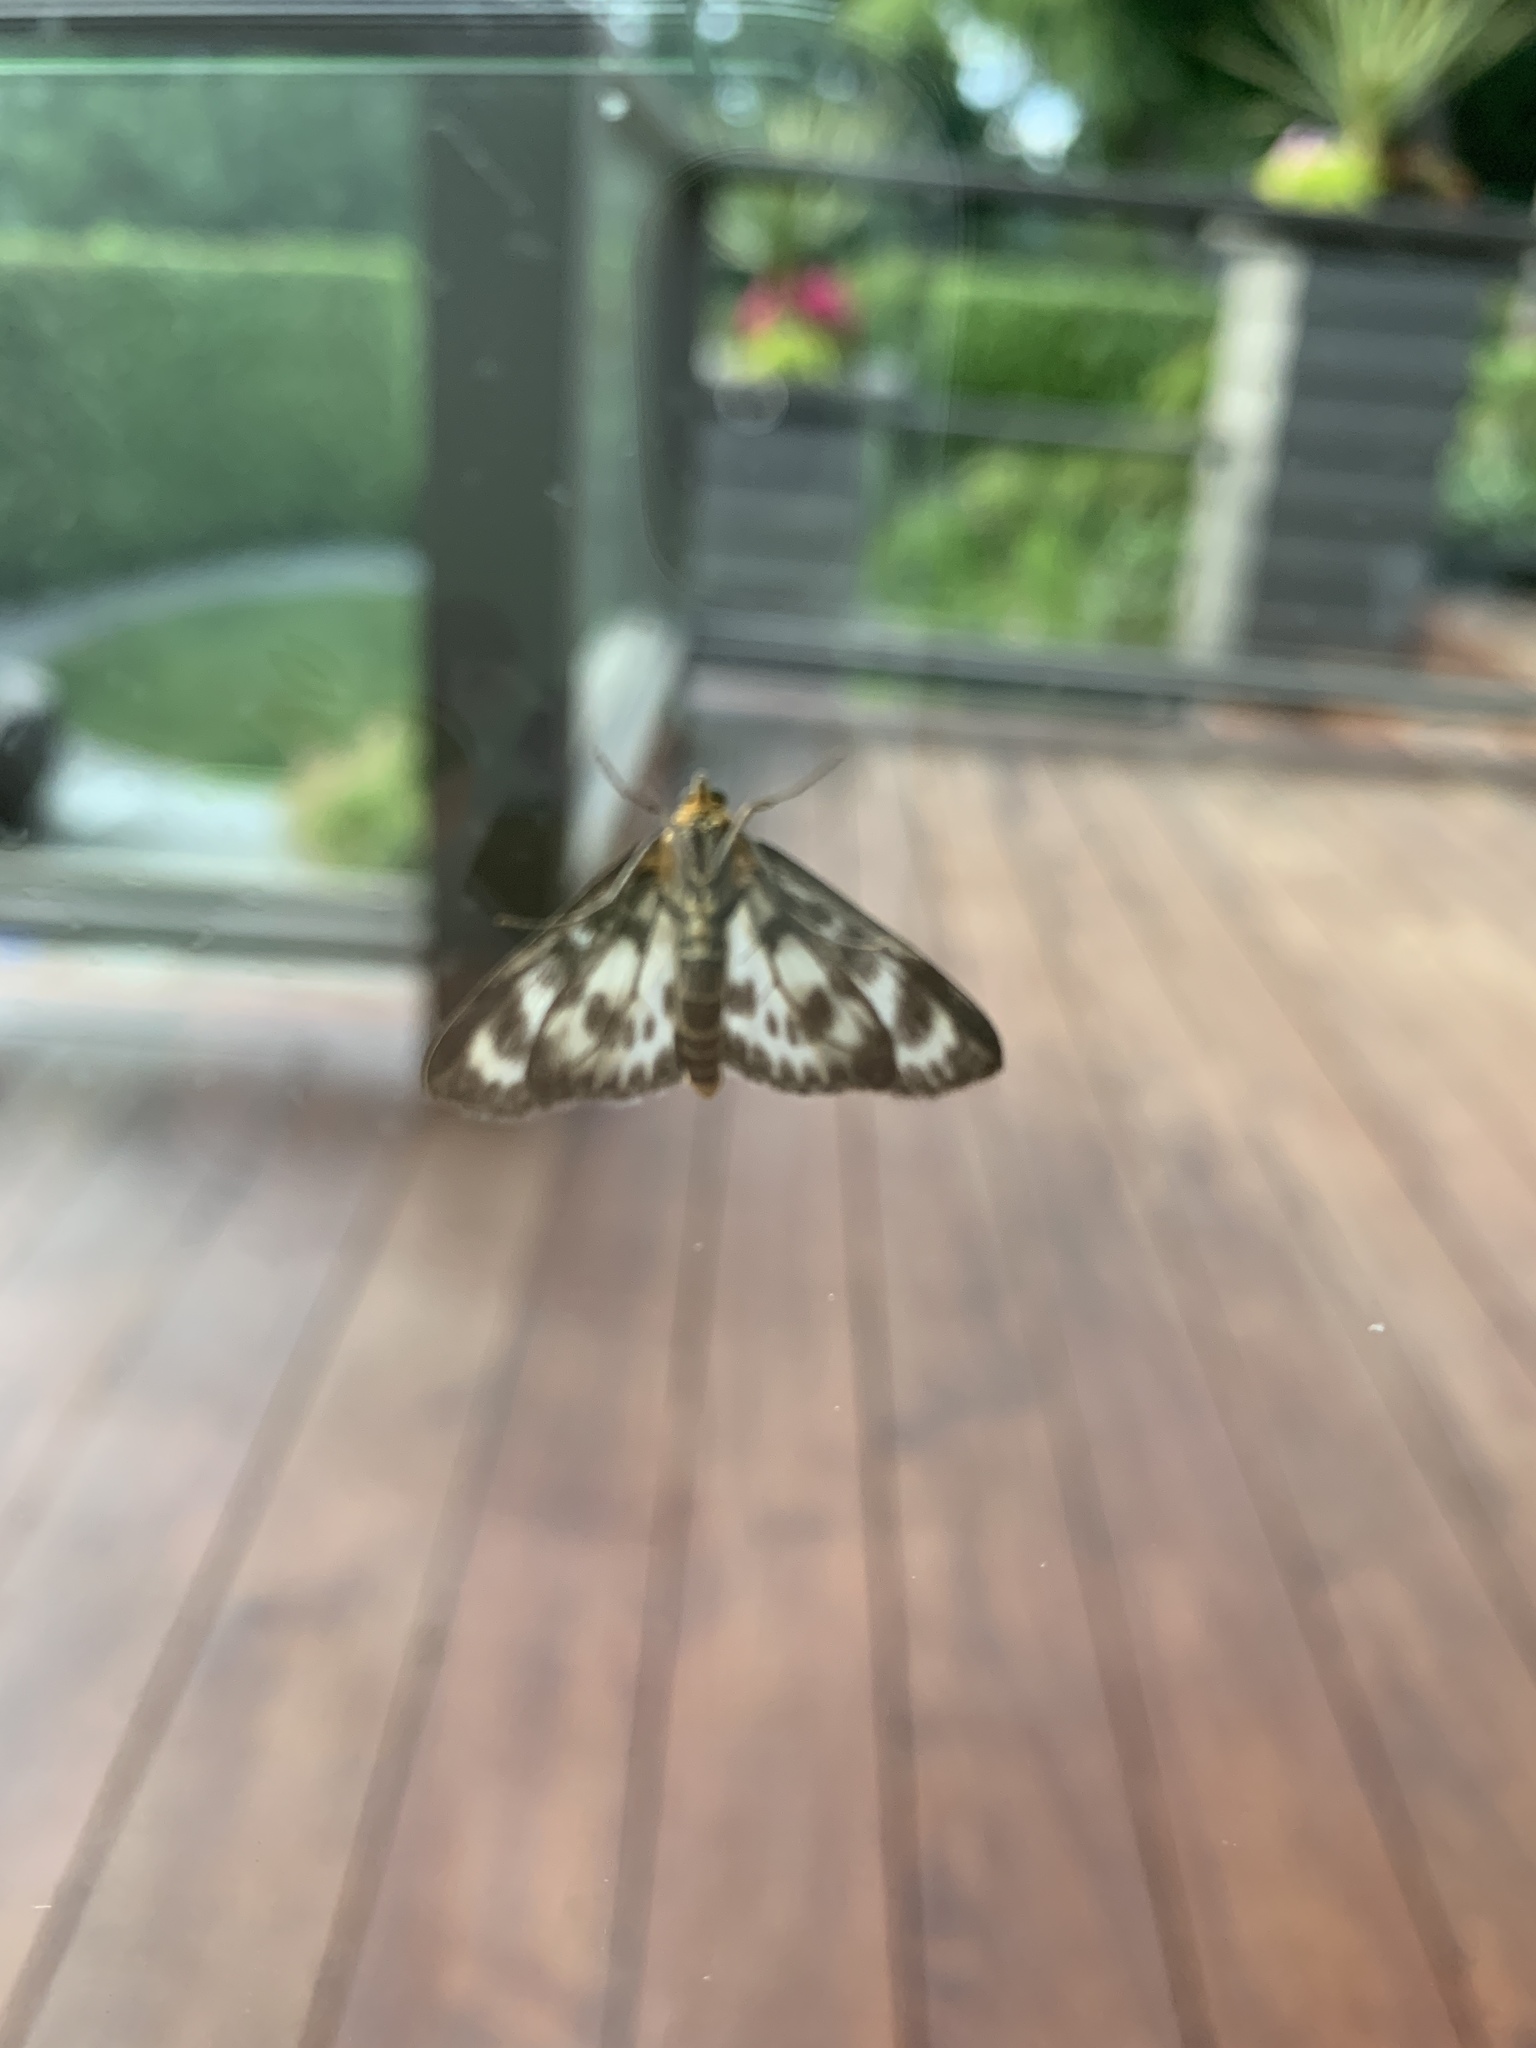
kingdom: Animalia
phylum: Arthropoda
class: Insecta
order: Lepidoptera
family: Crambidae
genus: Anania
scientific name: Anania hortulata
